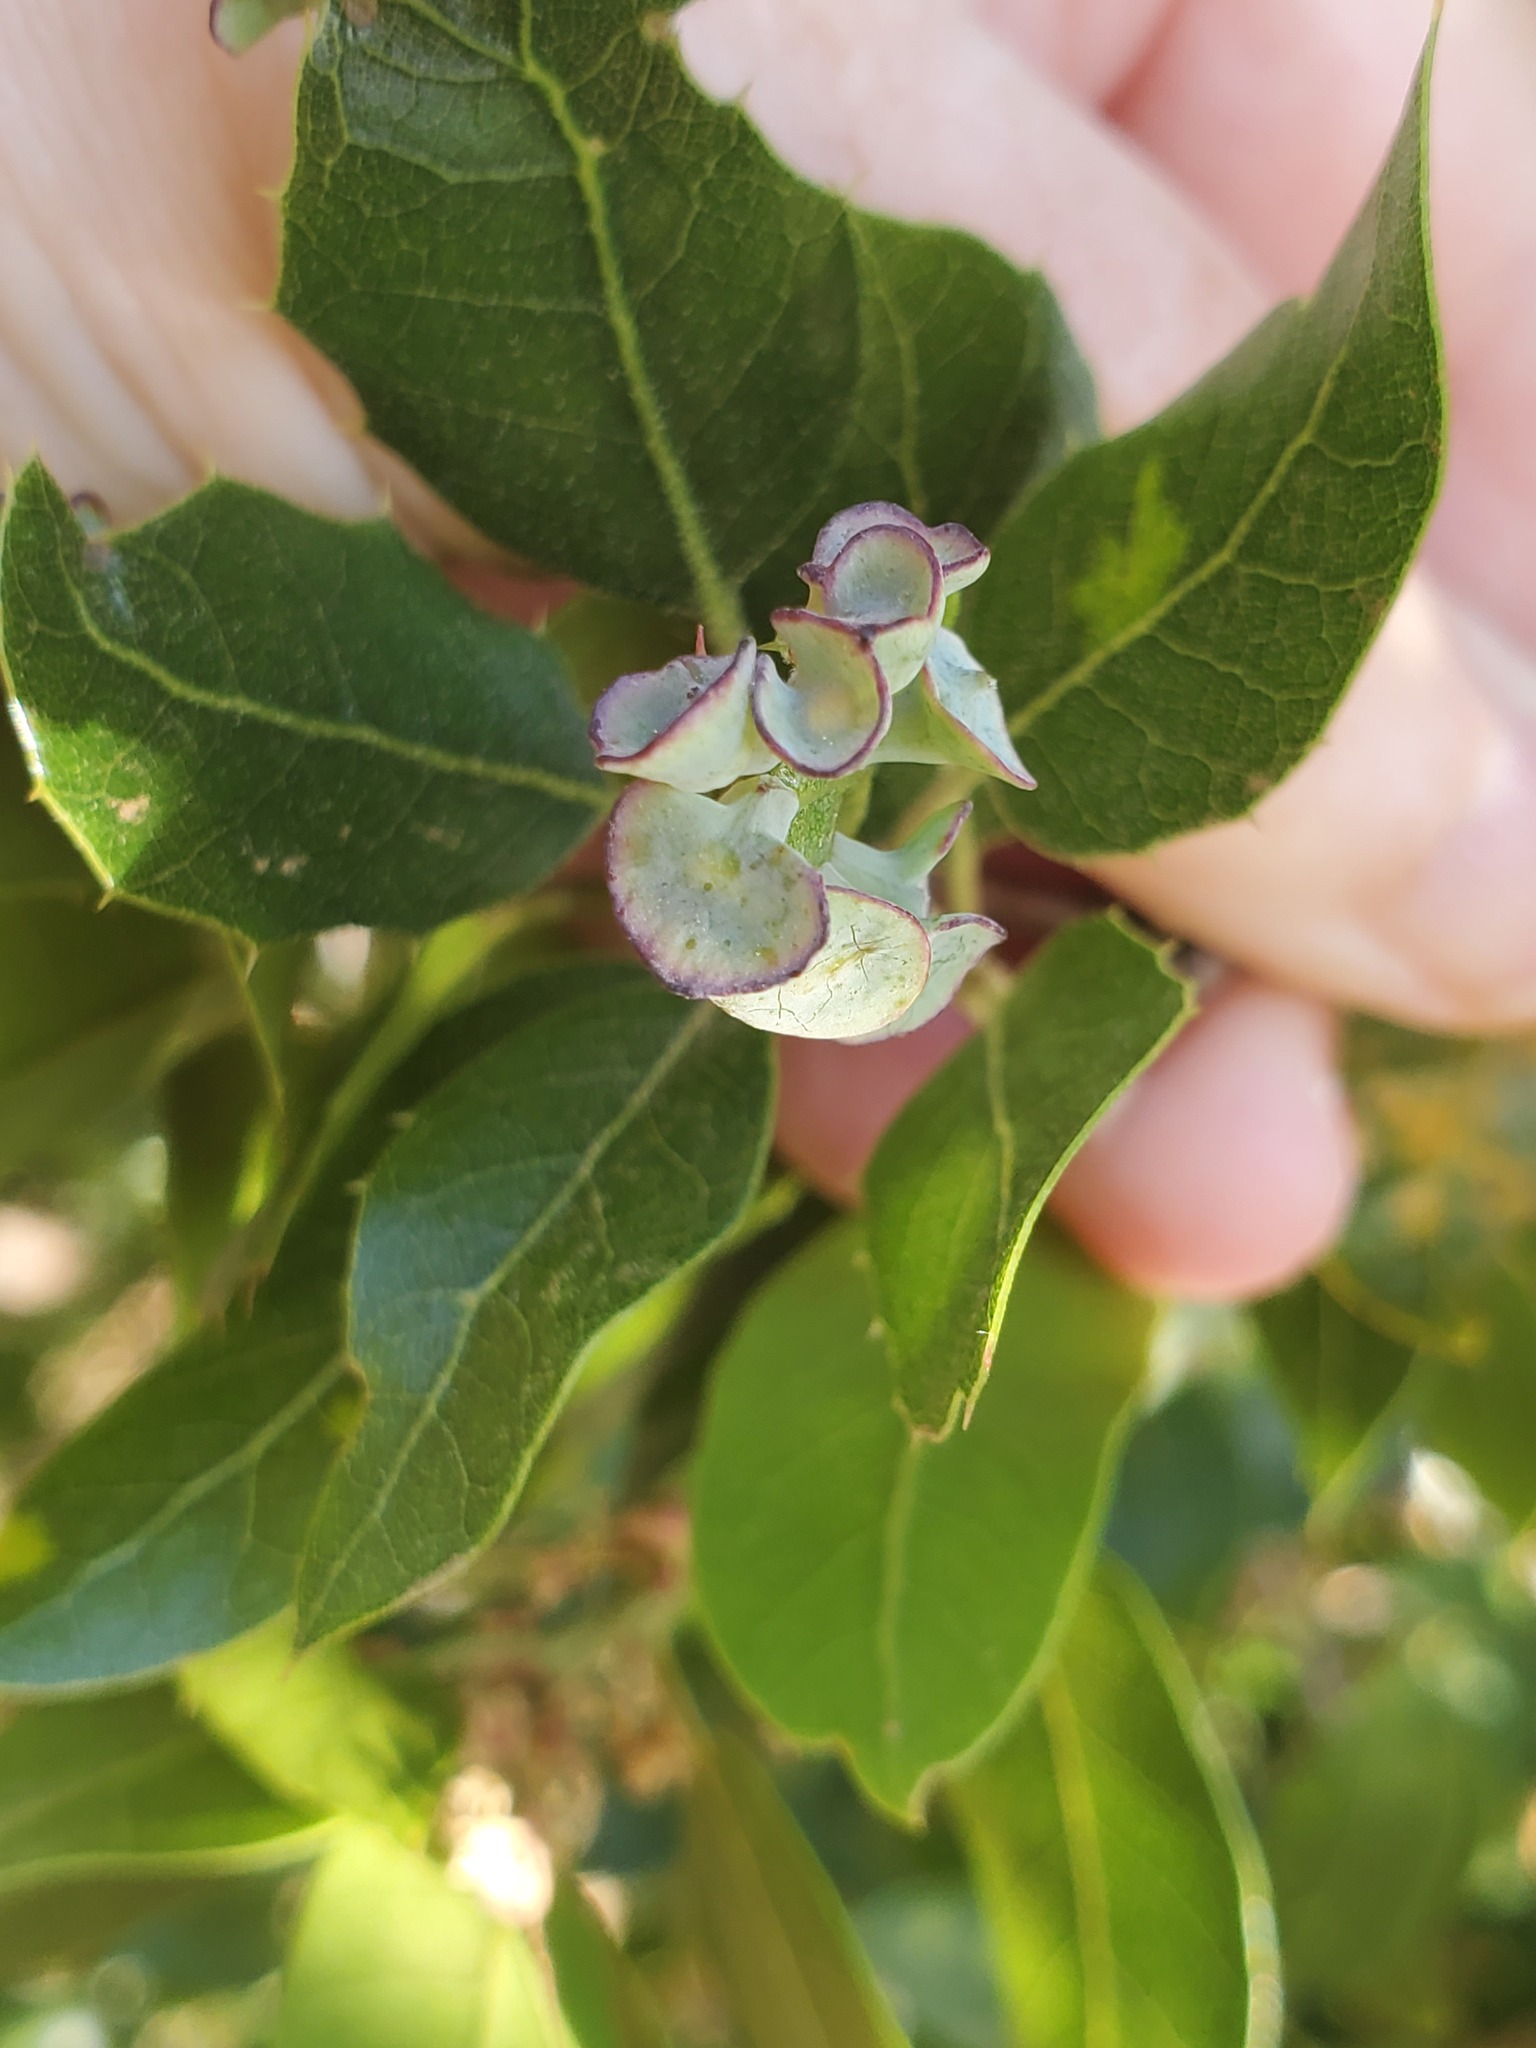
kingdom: Animalia
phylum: Arthropoda
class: Insecta
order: Hymenoptera
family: Cynipidae
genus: Amphibolips
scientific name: Amphibolips quercuspomiformis
